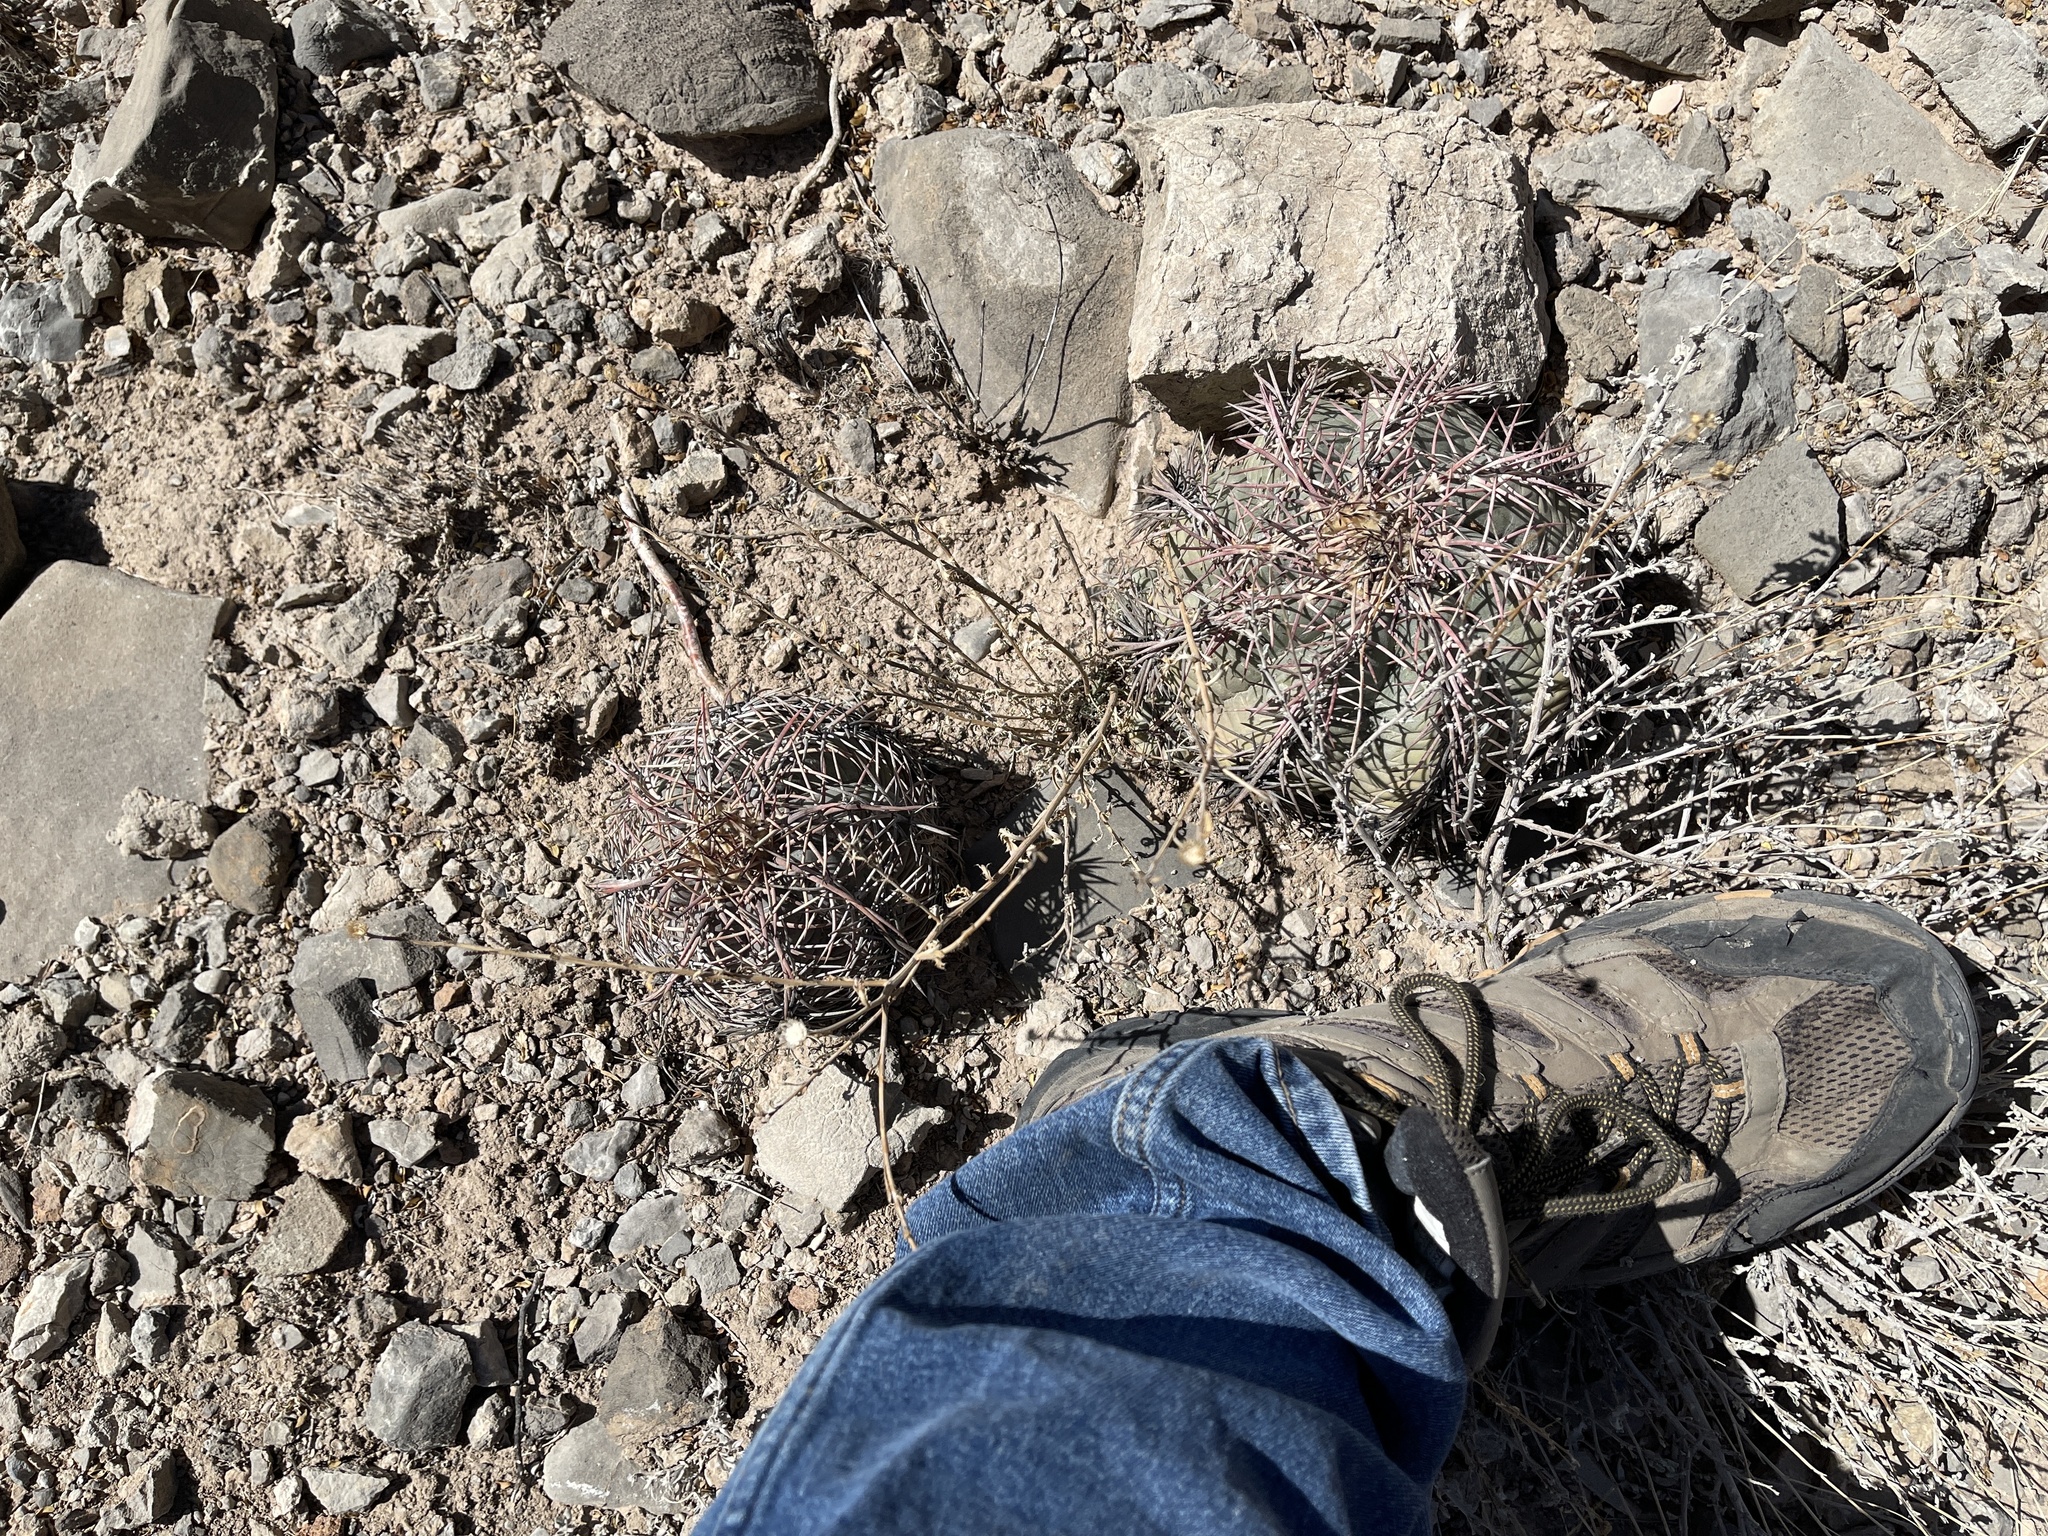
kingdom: Plantae
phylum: Tracheophyta
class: Magnoliopsida
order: Caryophyllales
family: Cactaceae
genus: Echinocactus
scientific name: Echinocactus horizonthalonius
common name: Devilshead
